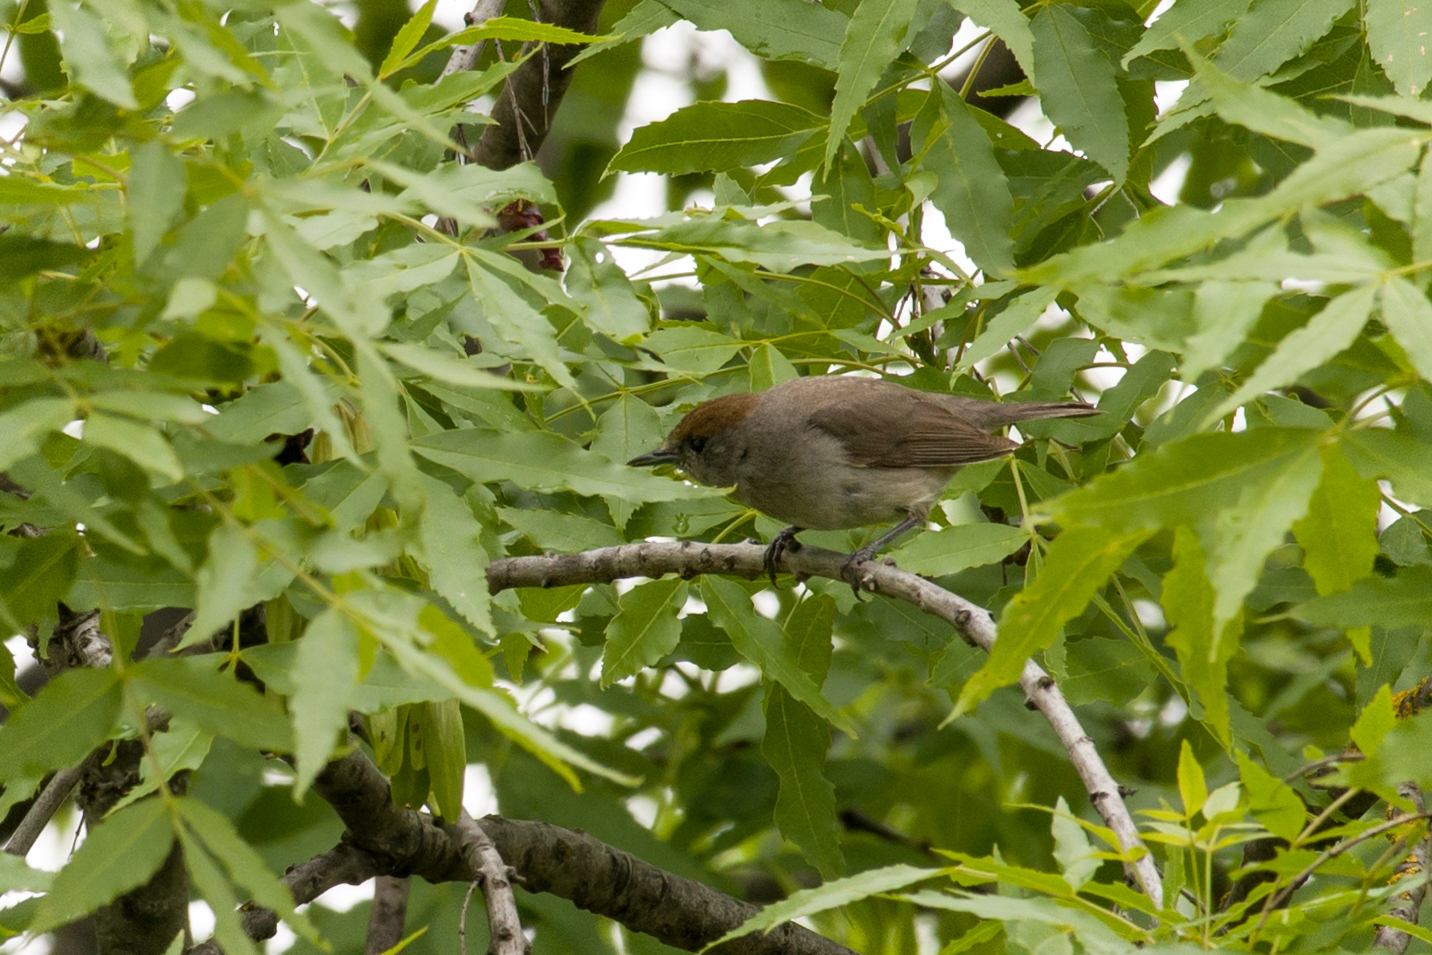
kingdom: Animalia
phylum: Chordata
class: Aves
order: Passeriformes
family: Sylviidae
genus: Sylvia
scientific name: Sylvia atricapilla
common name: Eurasian blackcap
